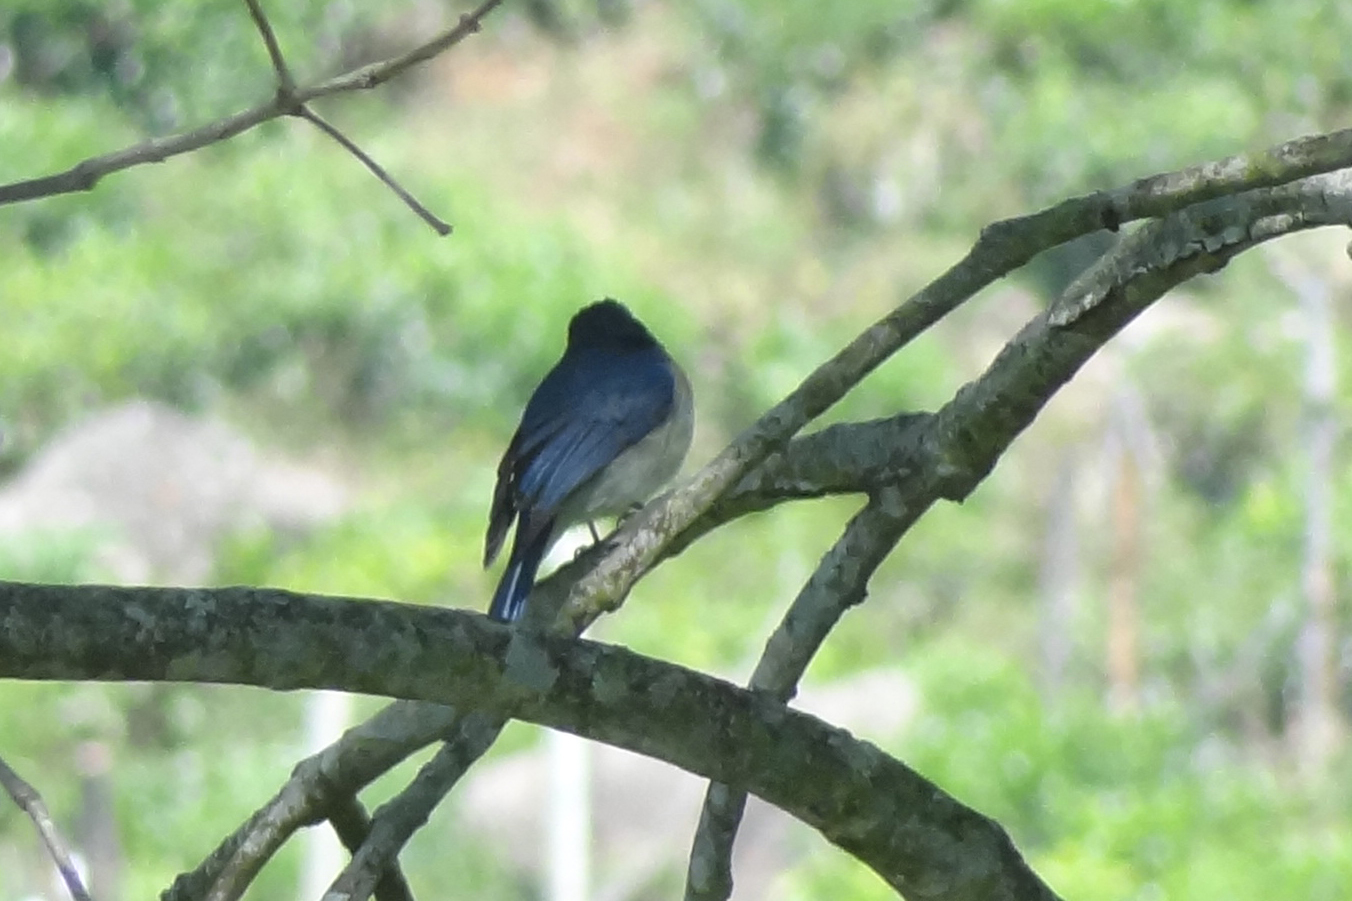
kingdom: Animalia
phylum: Chordata
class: Aves
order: Passeriformes
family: Muscicapidae
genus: Cyornis
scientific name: Cyornis pallidipes
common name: White-bellied blue flycatcher
